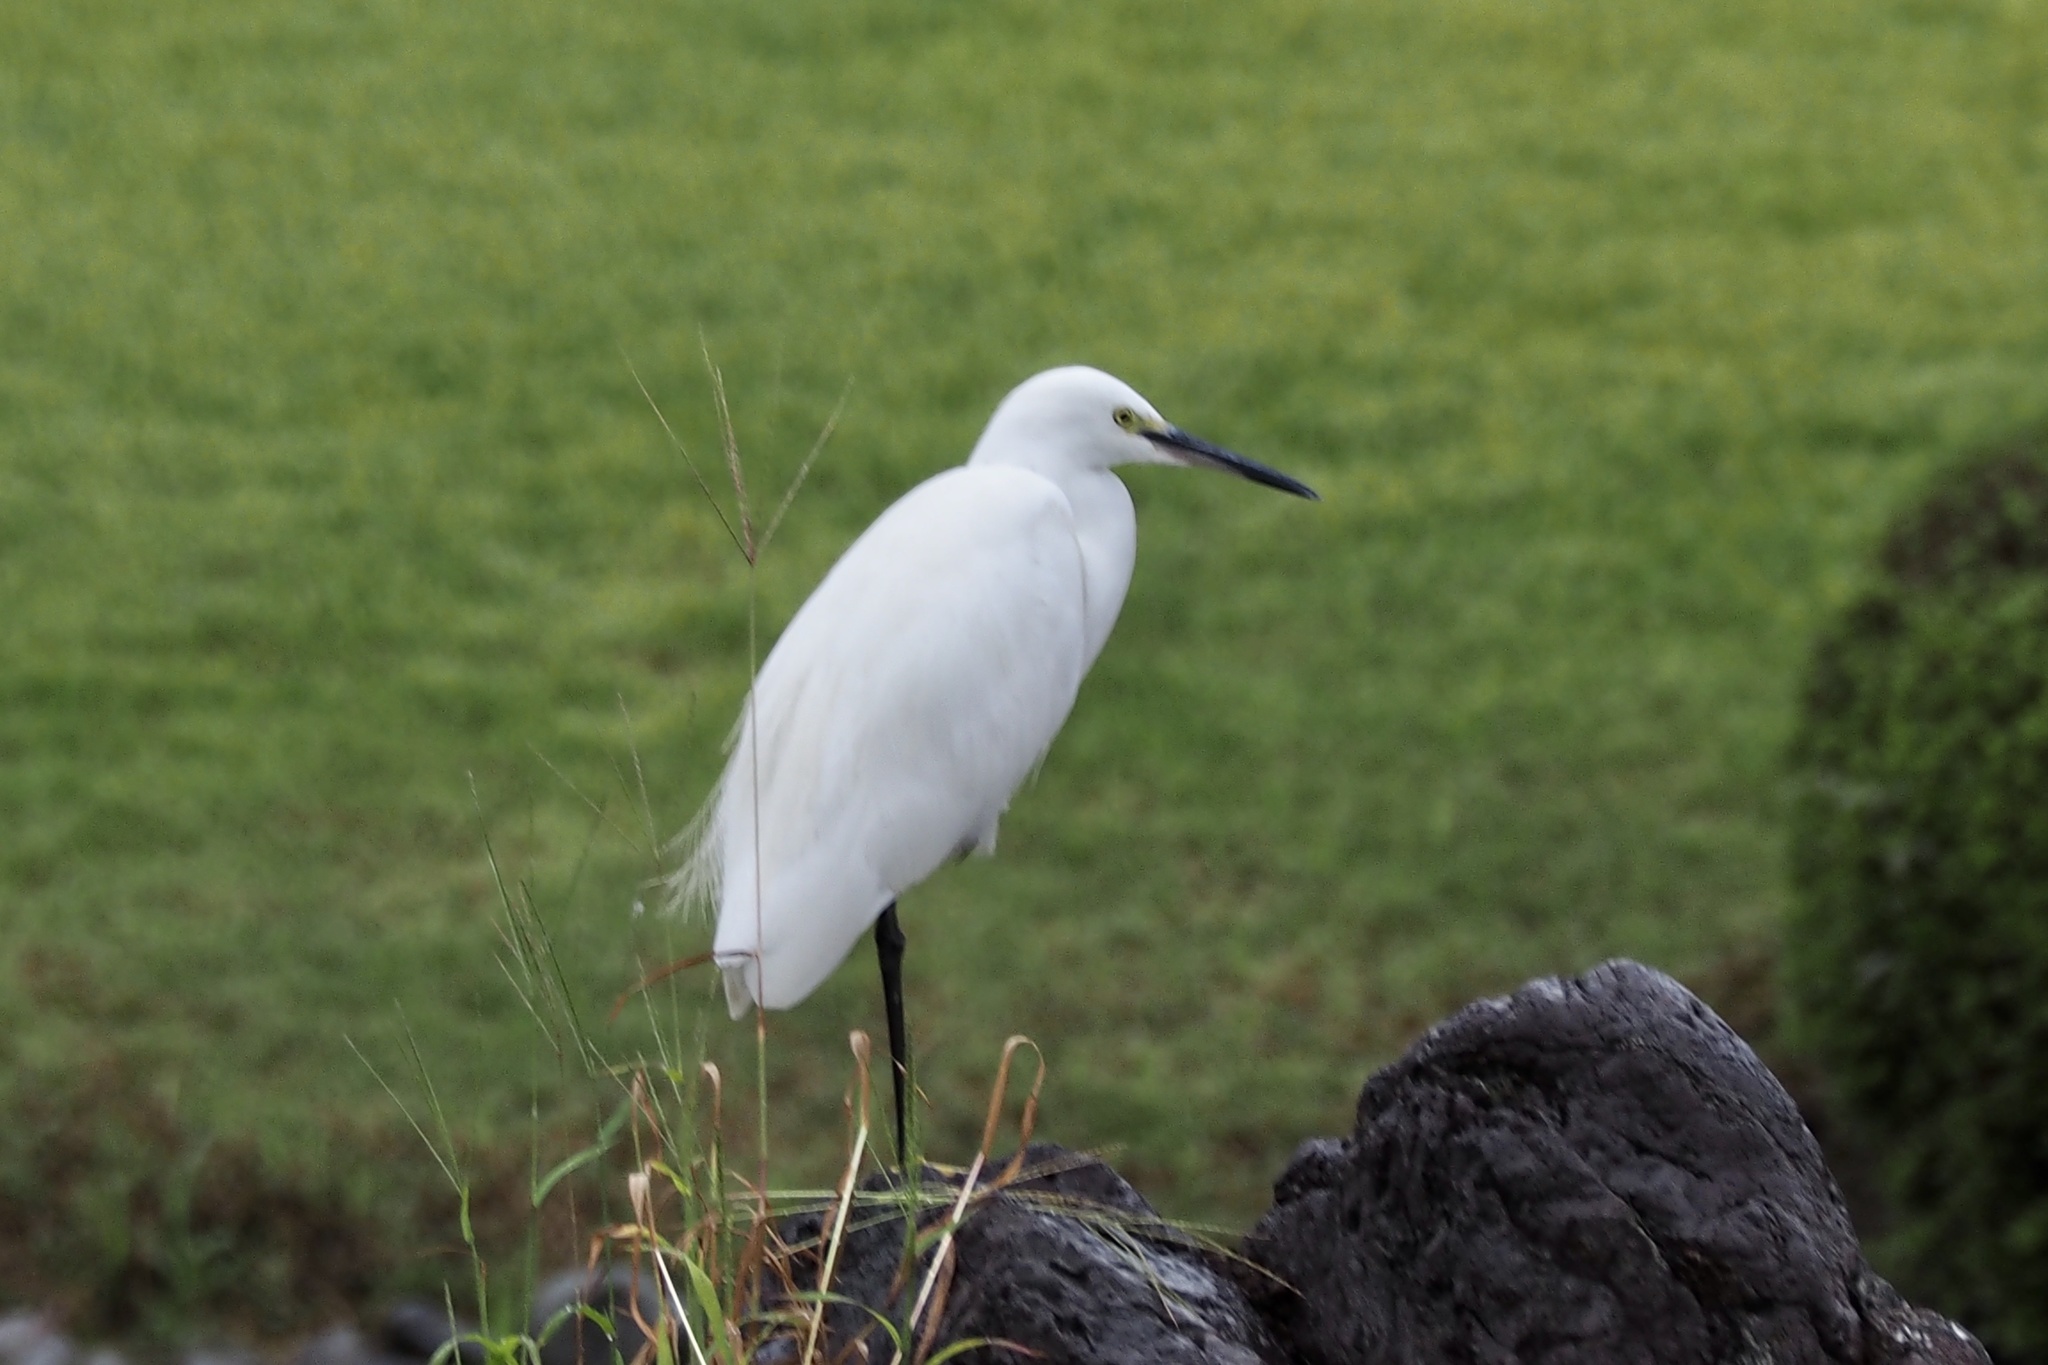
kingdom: Animalia
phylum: Chordata
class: Aves
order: Pelecaniformes
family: Ardeidae
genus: Egretta
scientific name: Egretta garzetta
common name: Little egret
